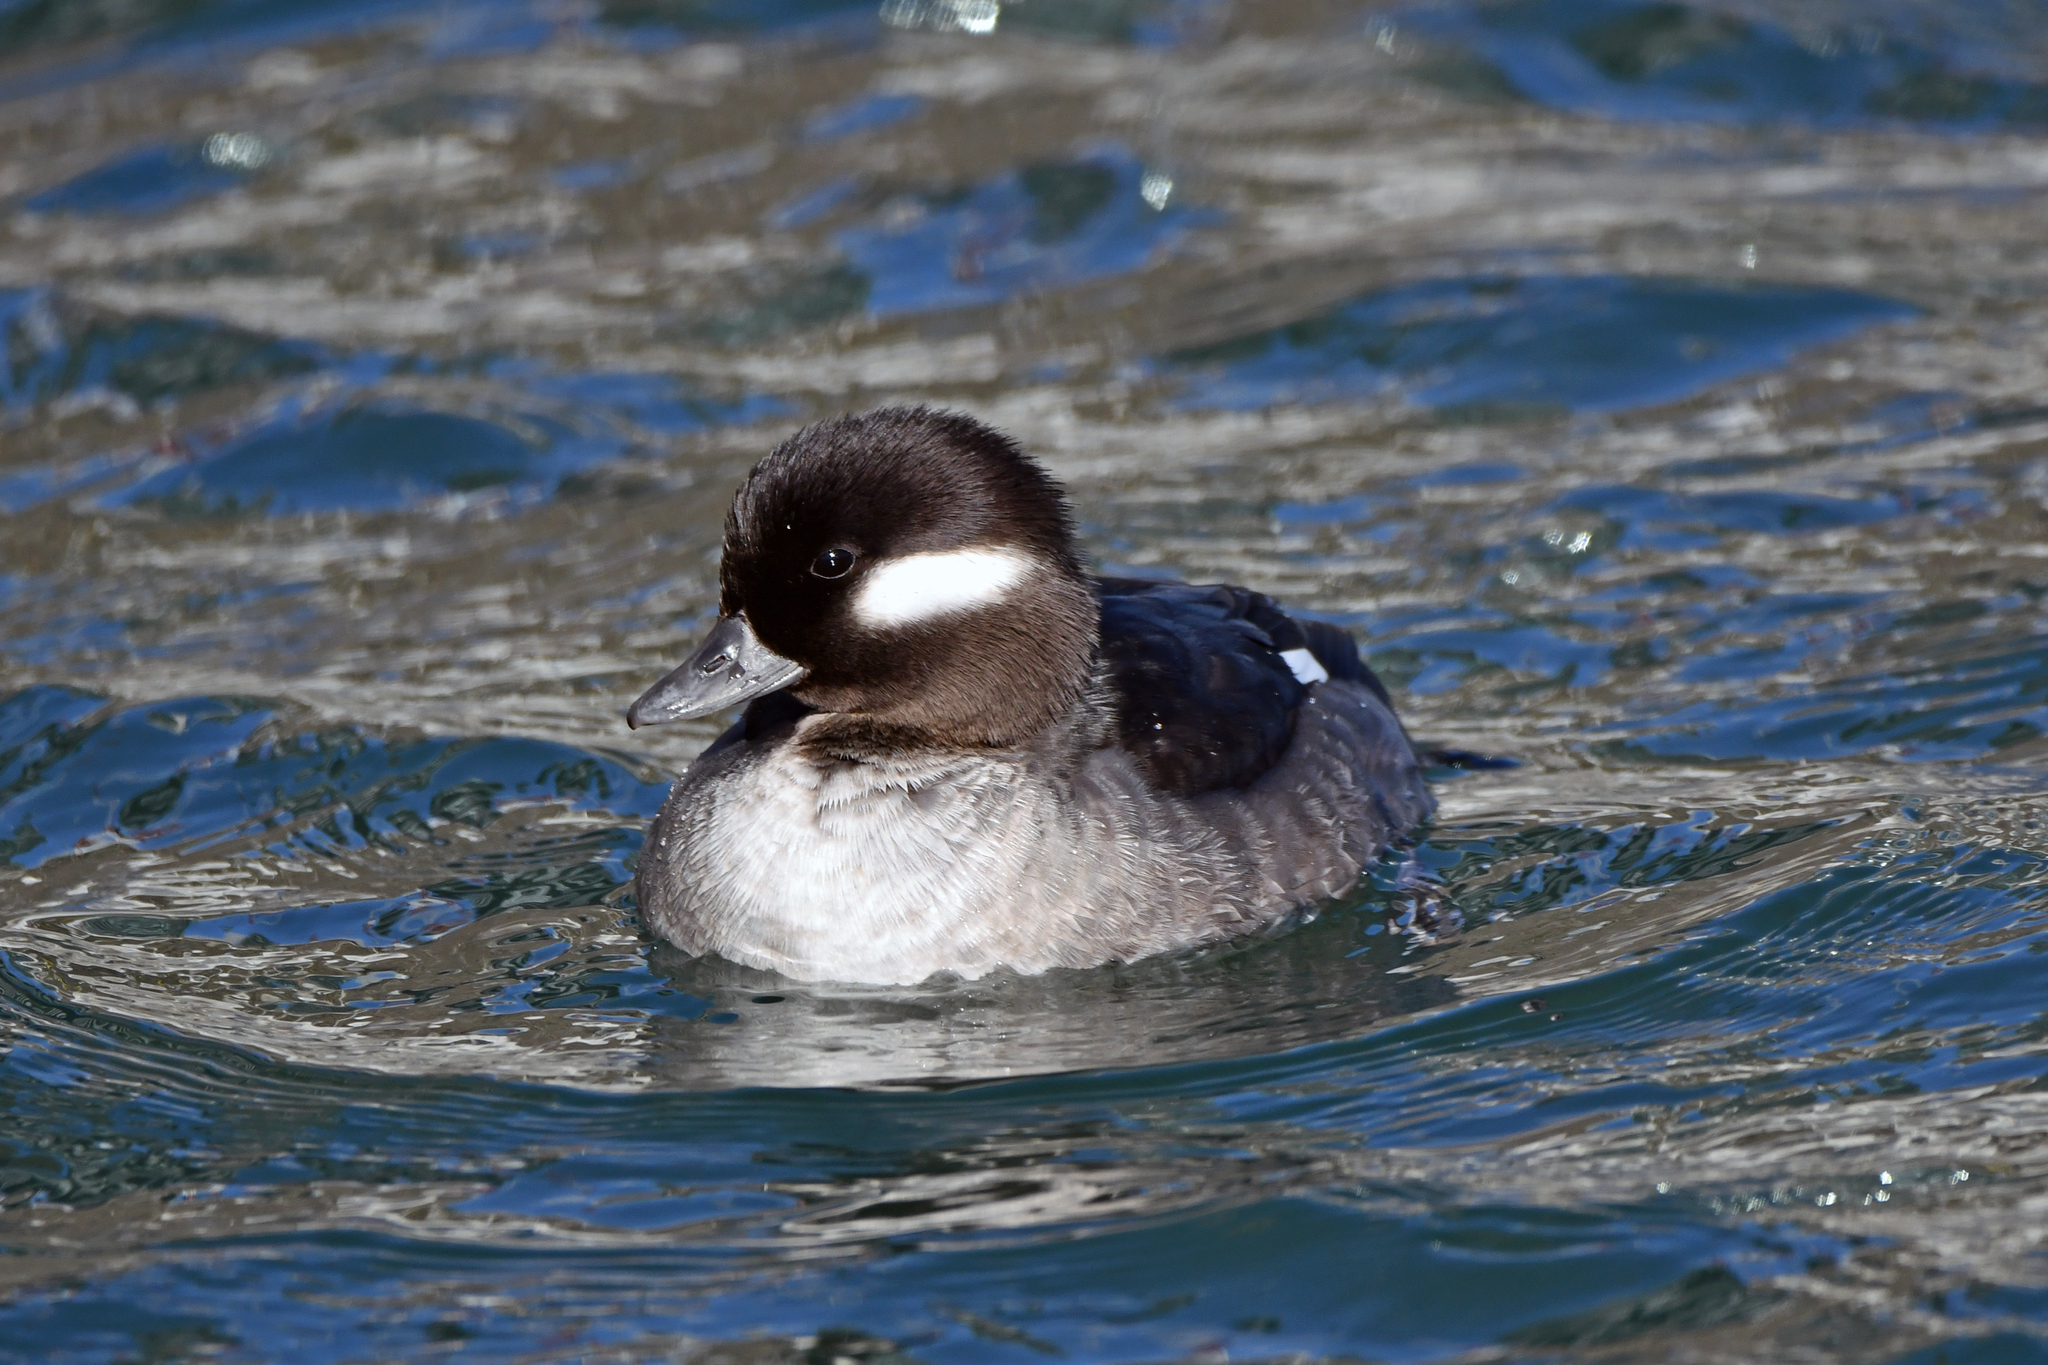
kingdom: Animalia
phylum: Chordata
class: Aves
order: Anseriformes
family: Anatidae
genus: Bucephala
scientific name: Bucephala albeola
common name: Bufflehead
